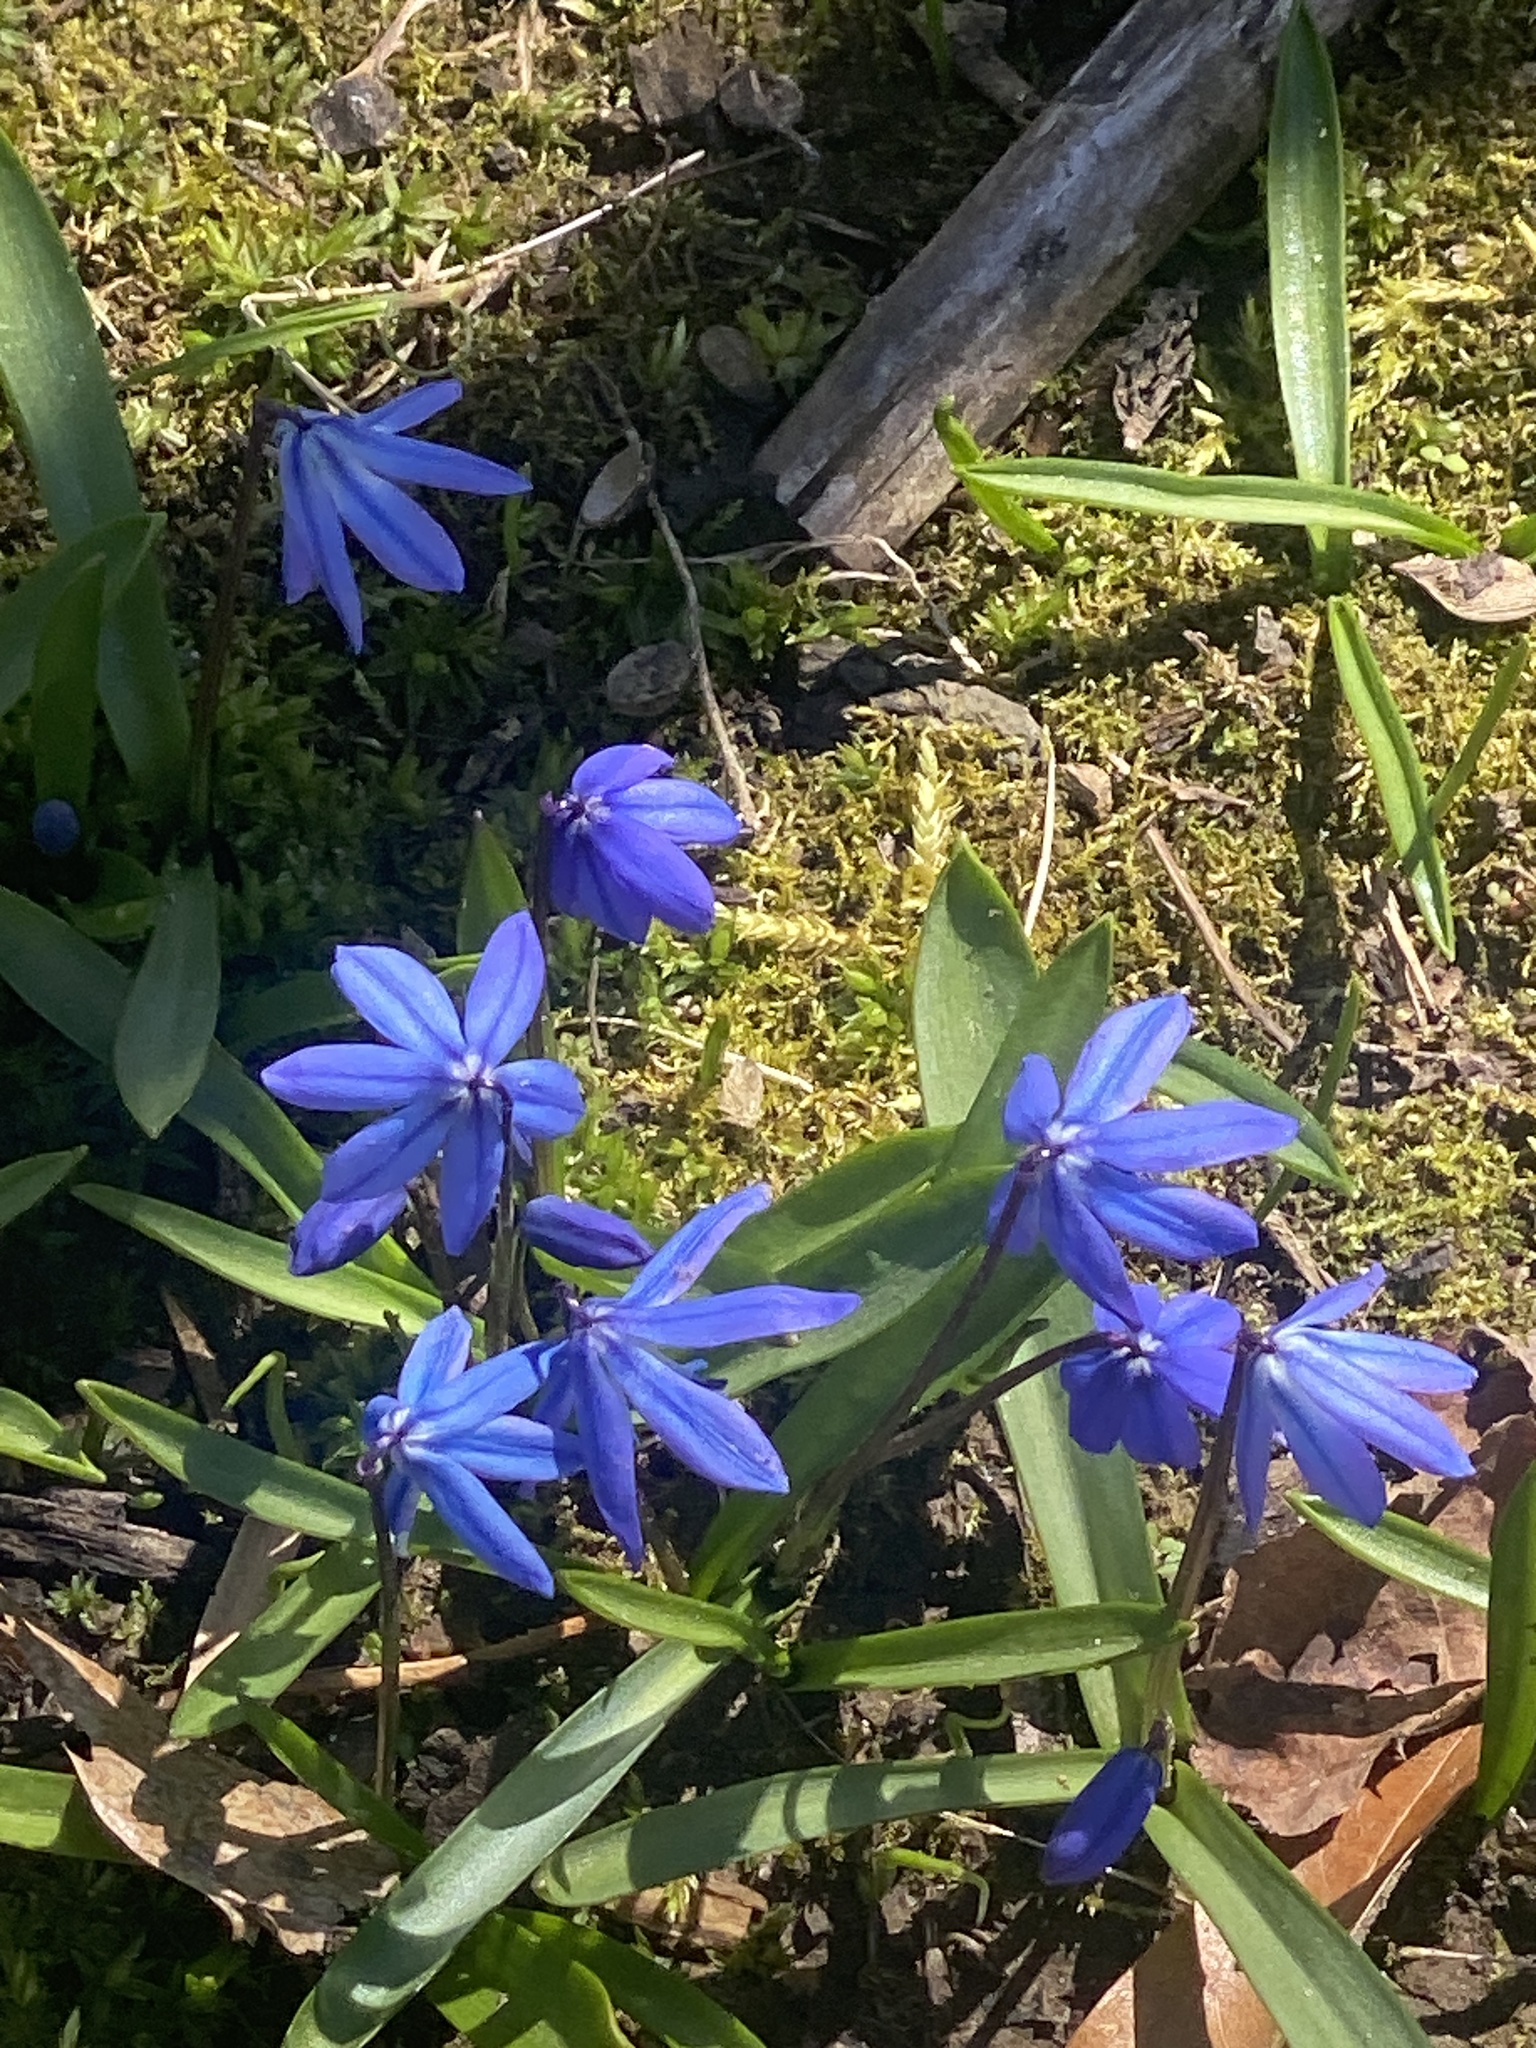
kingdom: Plantae
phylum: Tracheophyta
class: Liliopsida
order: Asparagales
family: Asparagaceae
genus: Scilla
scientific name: Scilla siberica
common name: Siberian squill
